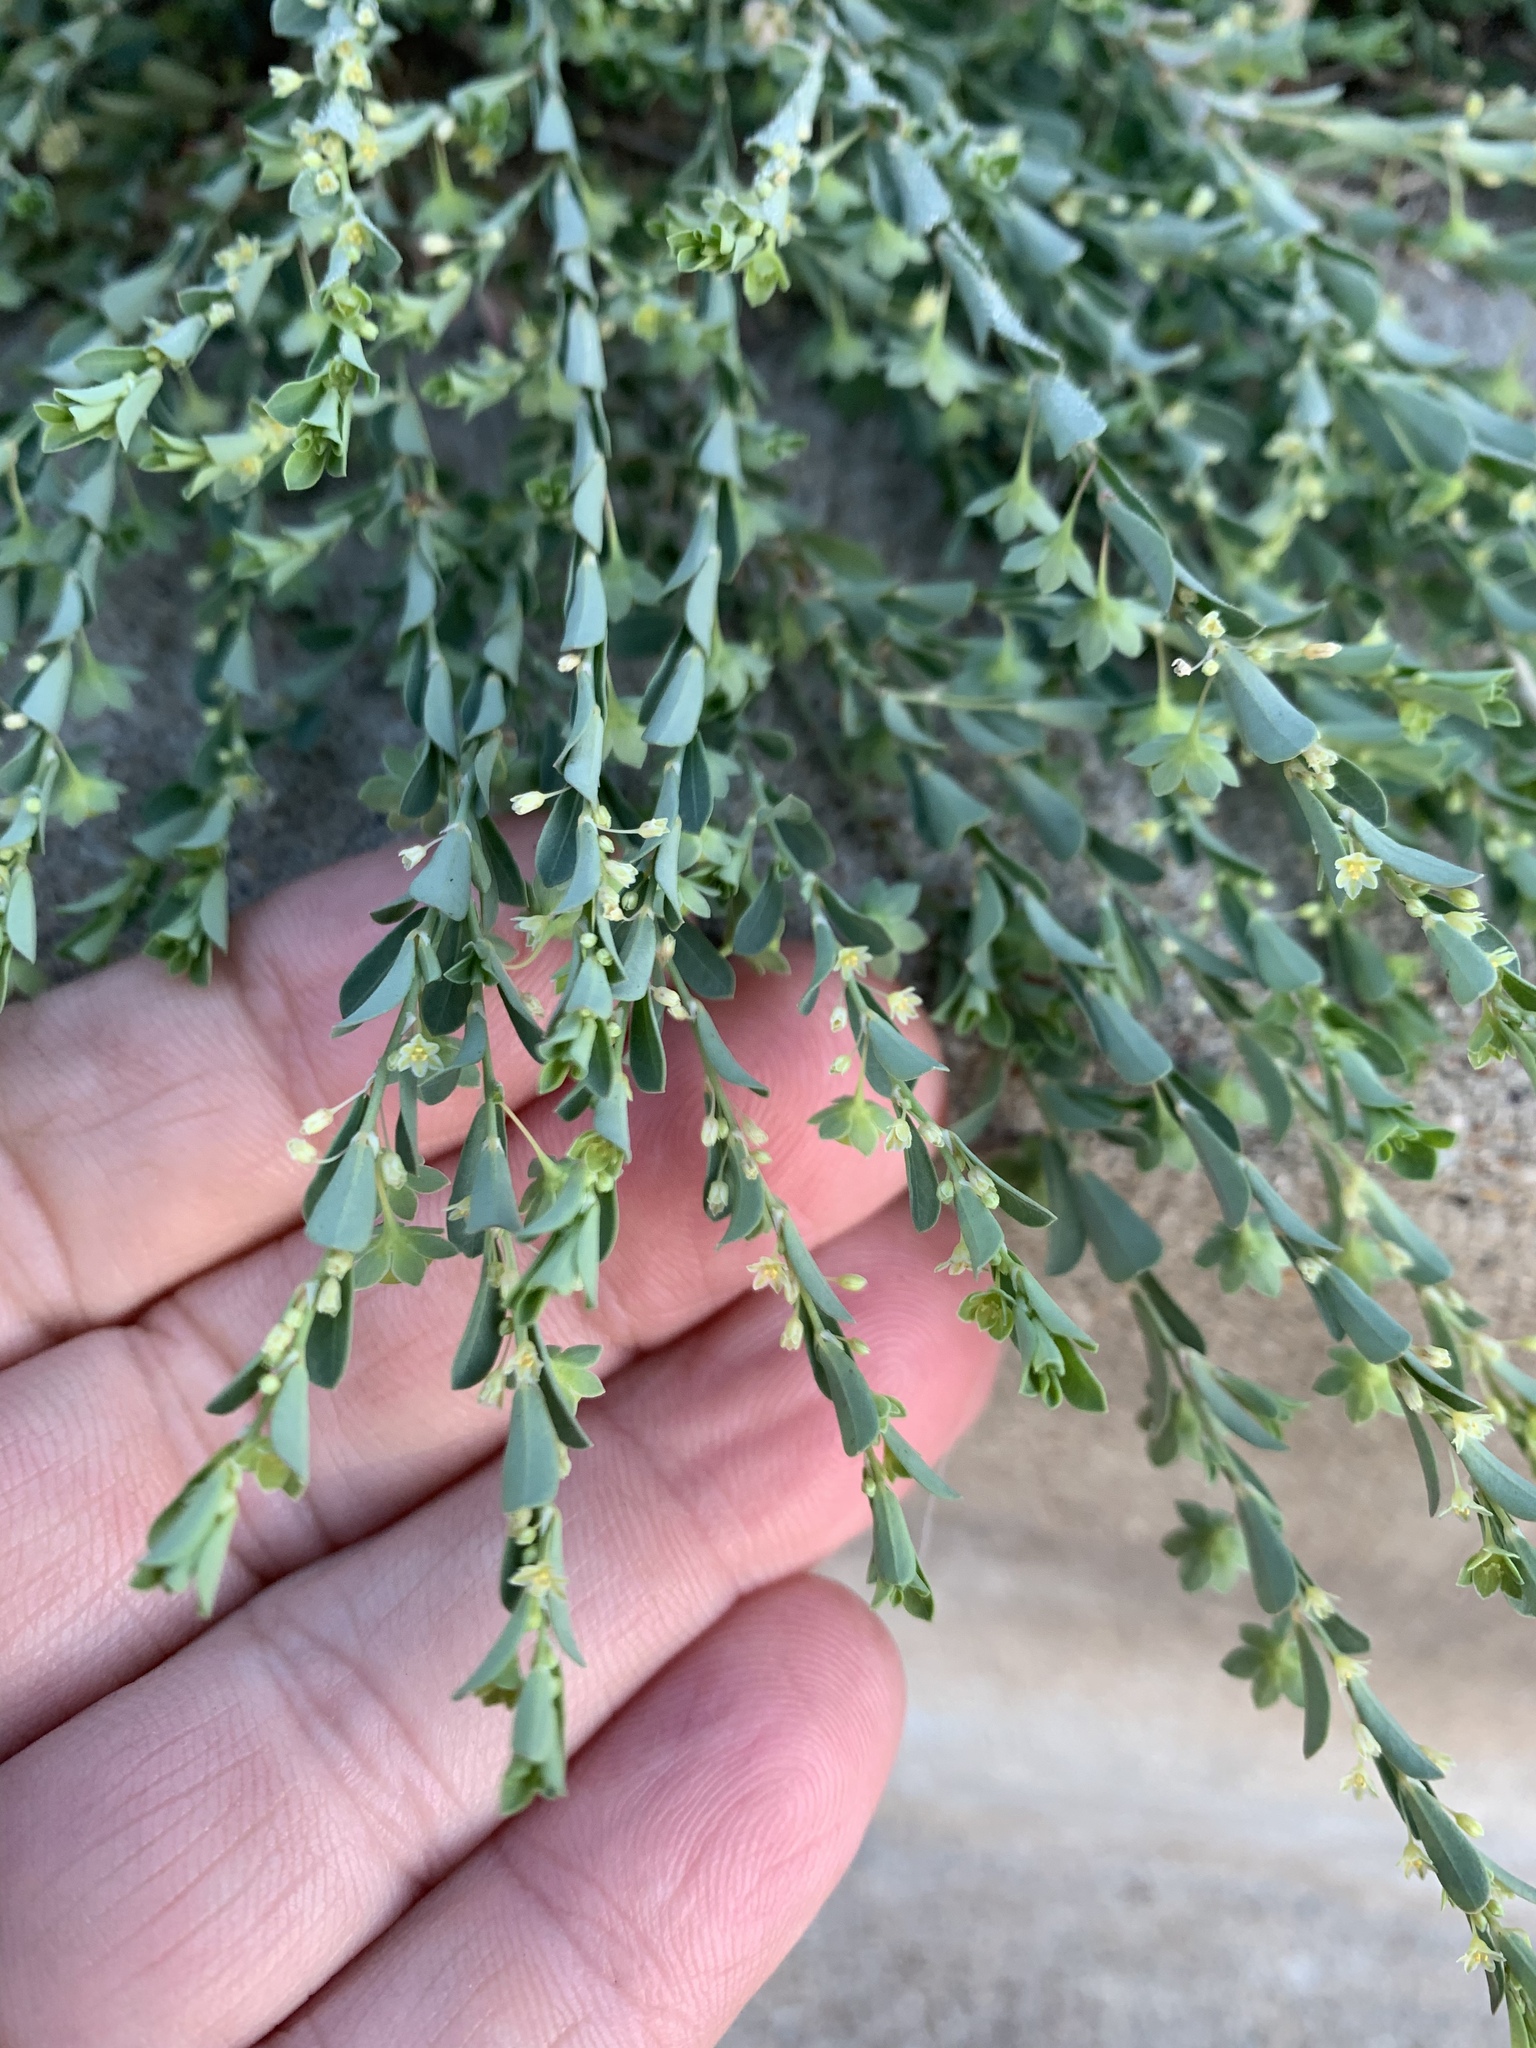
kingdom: Plantae
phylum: Tracheophyta
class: Magnoliopsida
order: Malpighiales
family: Phyllanthaceae
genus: Phyllanthus
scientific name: Phyllanthus polygonoides
